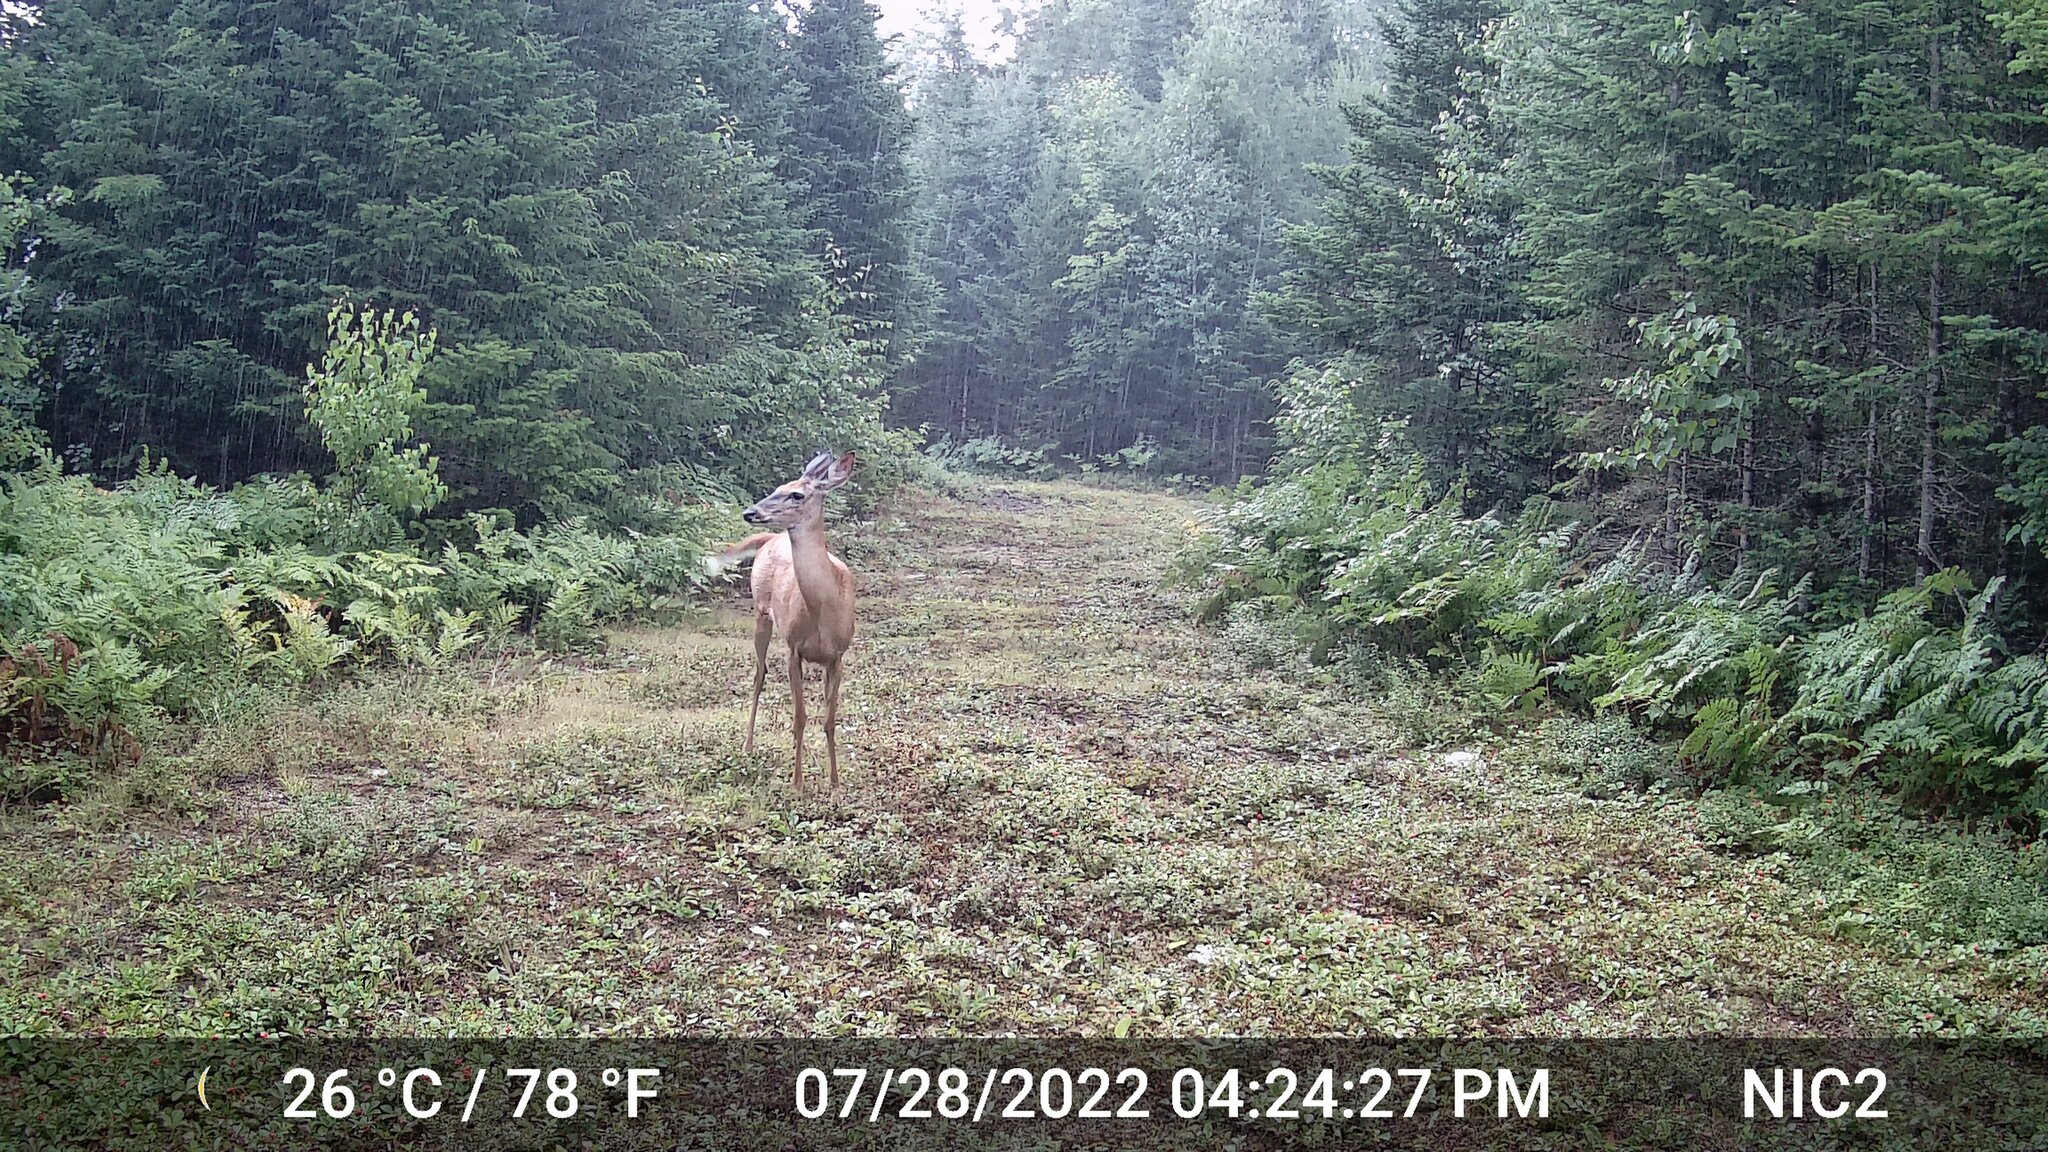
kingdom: Animalia
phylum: Chordata
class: Mammalia
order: Artiodactyla
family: Cervidae
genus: Odocoileus
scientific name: Odocoileus virginianus
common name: White-tailed deer
